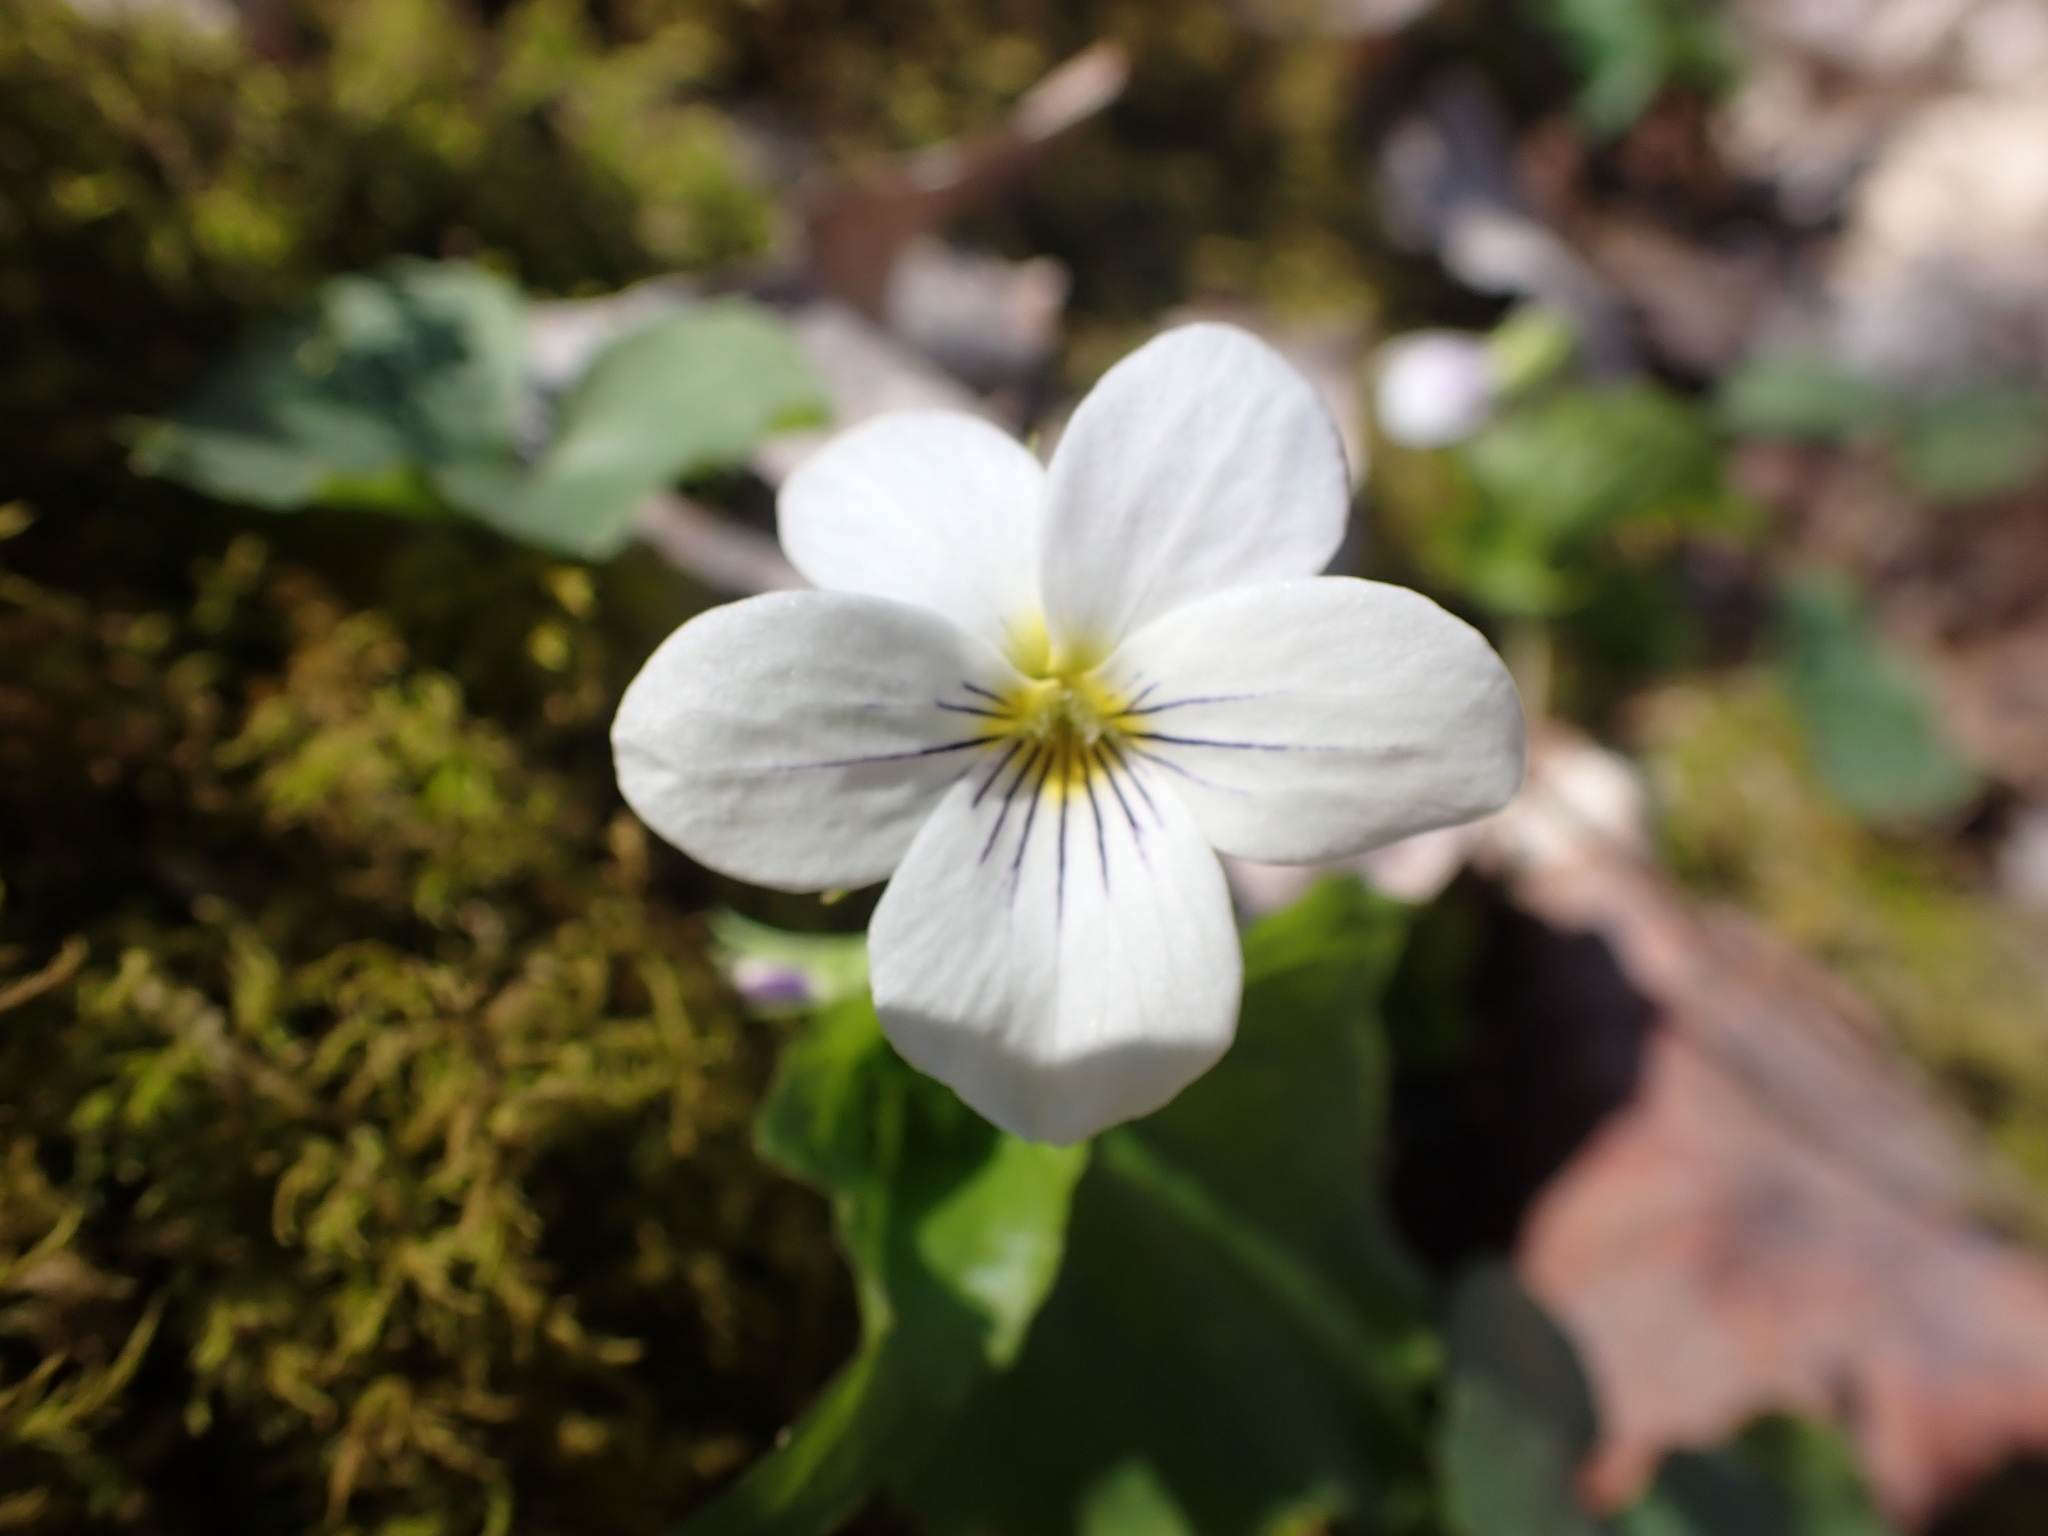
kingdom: Plantae
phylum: Tracheophyta
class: Magnoliopsida
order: Malpighiales
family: Violaceae
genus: Viola
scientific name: Viola canadensis
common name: Canada violet
